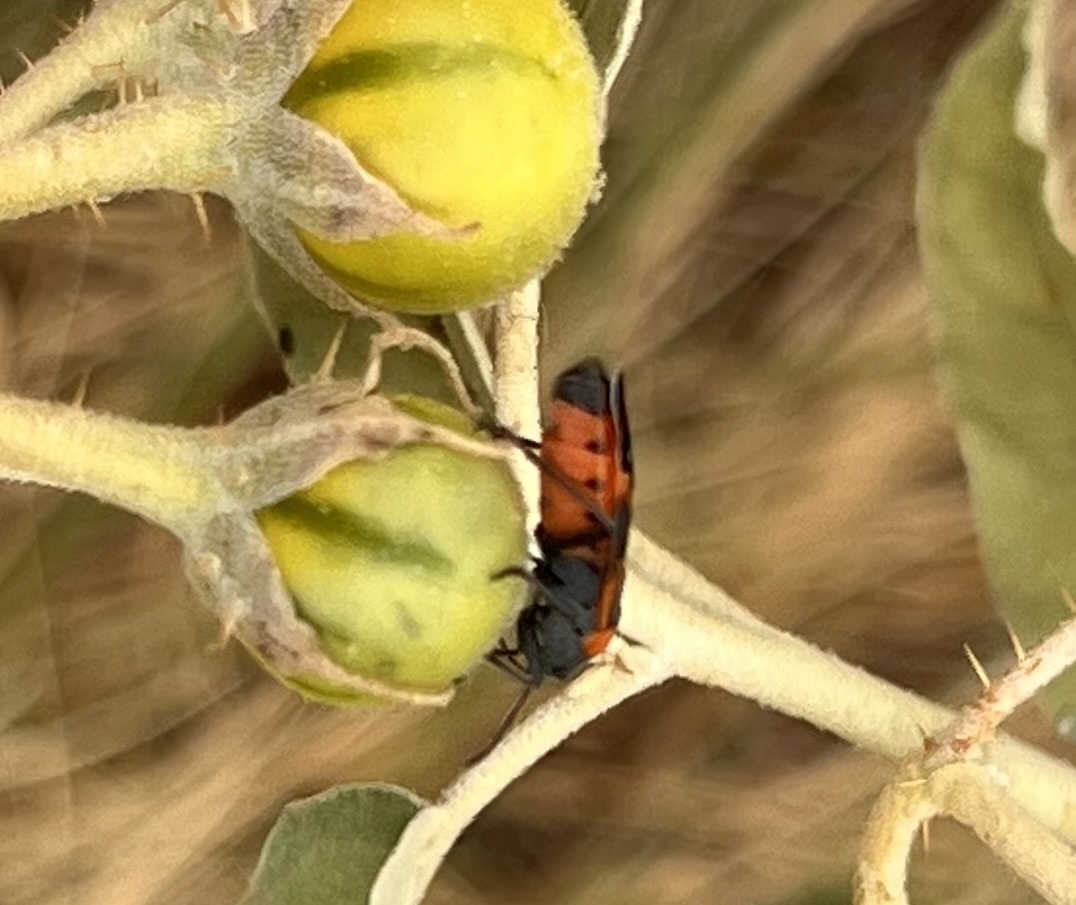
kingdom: Animalia
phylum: Arthropoda
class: Insecta
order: Hemiptera
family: Lygaeidae
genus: Lygaeus
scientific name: Lygaeus kalmii
